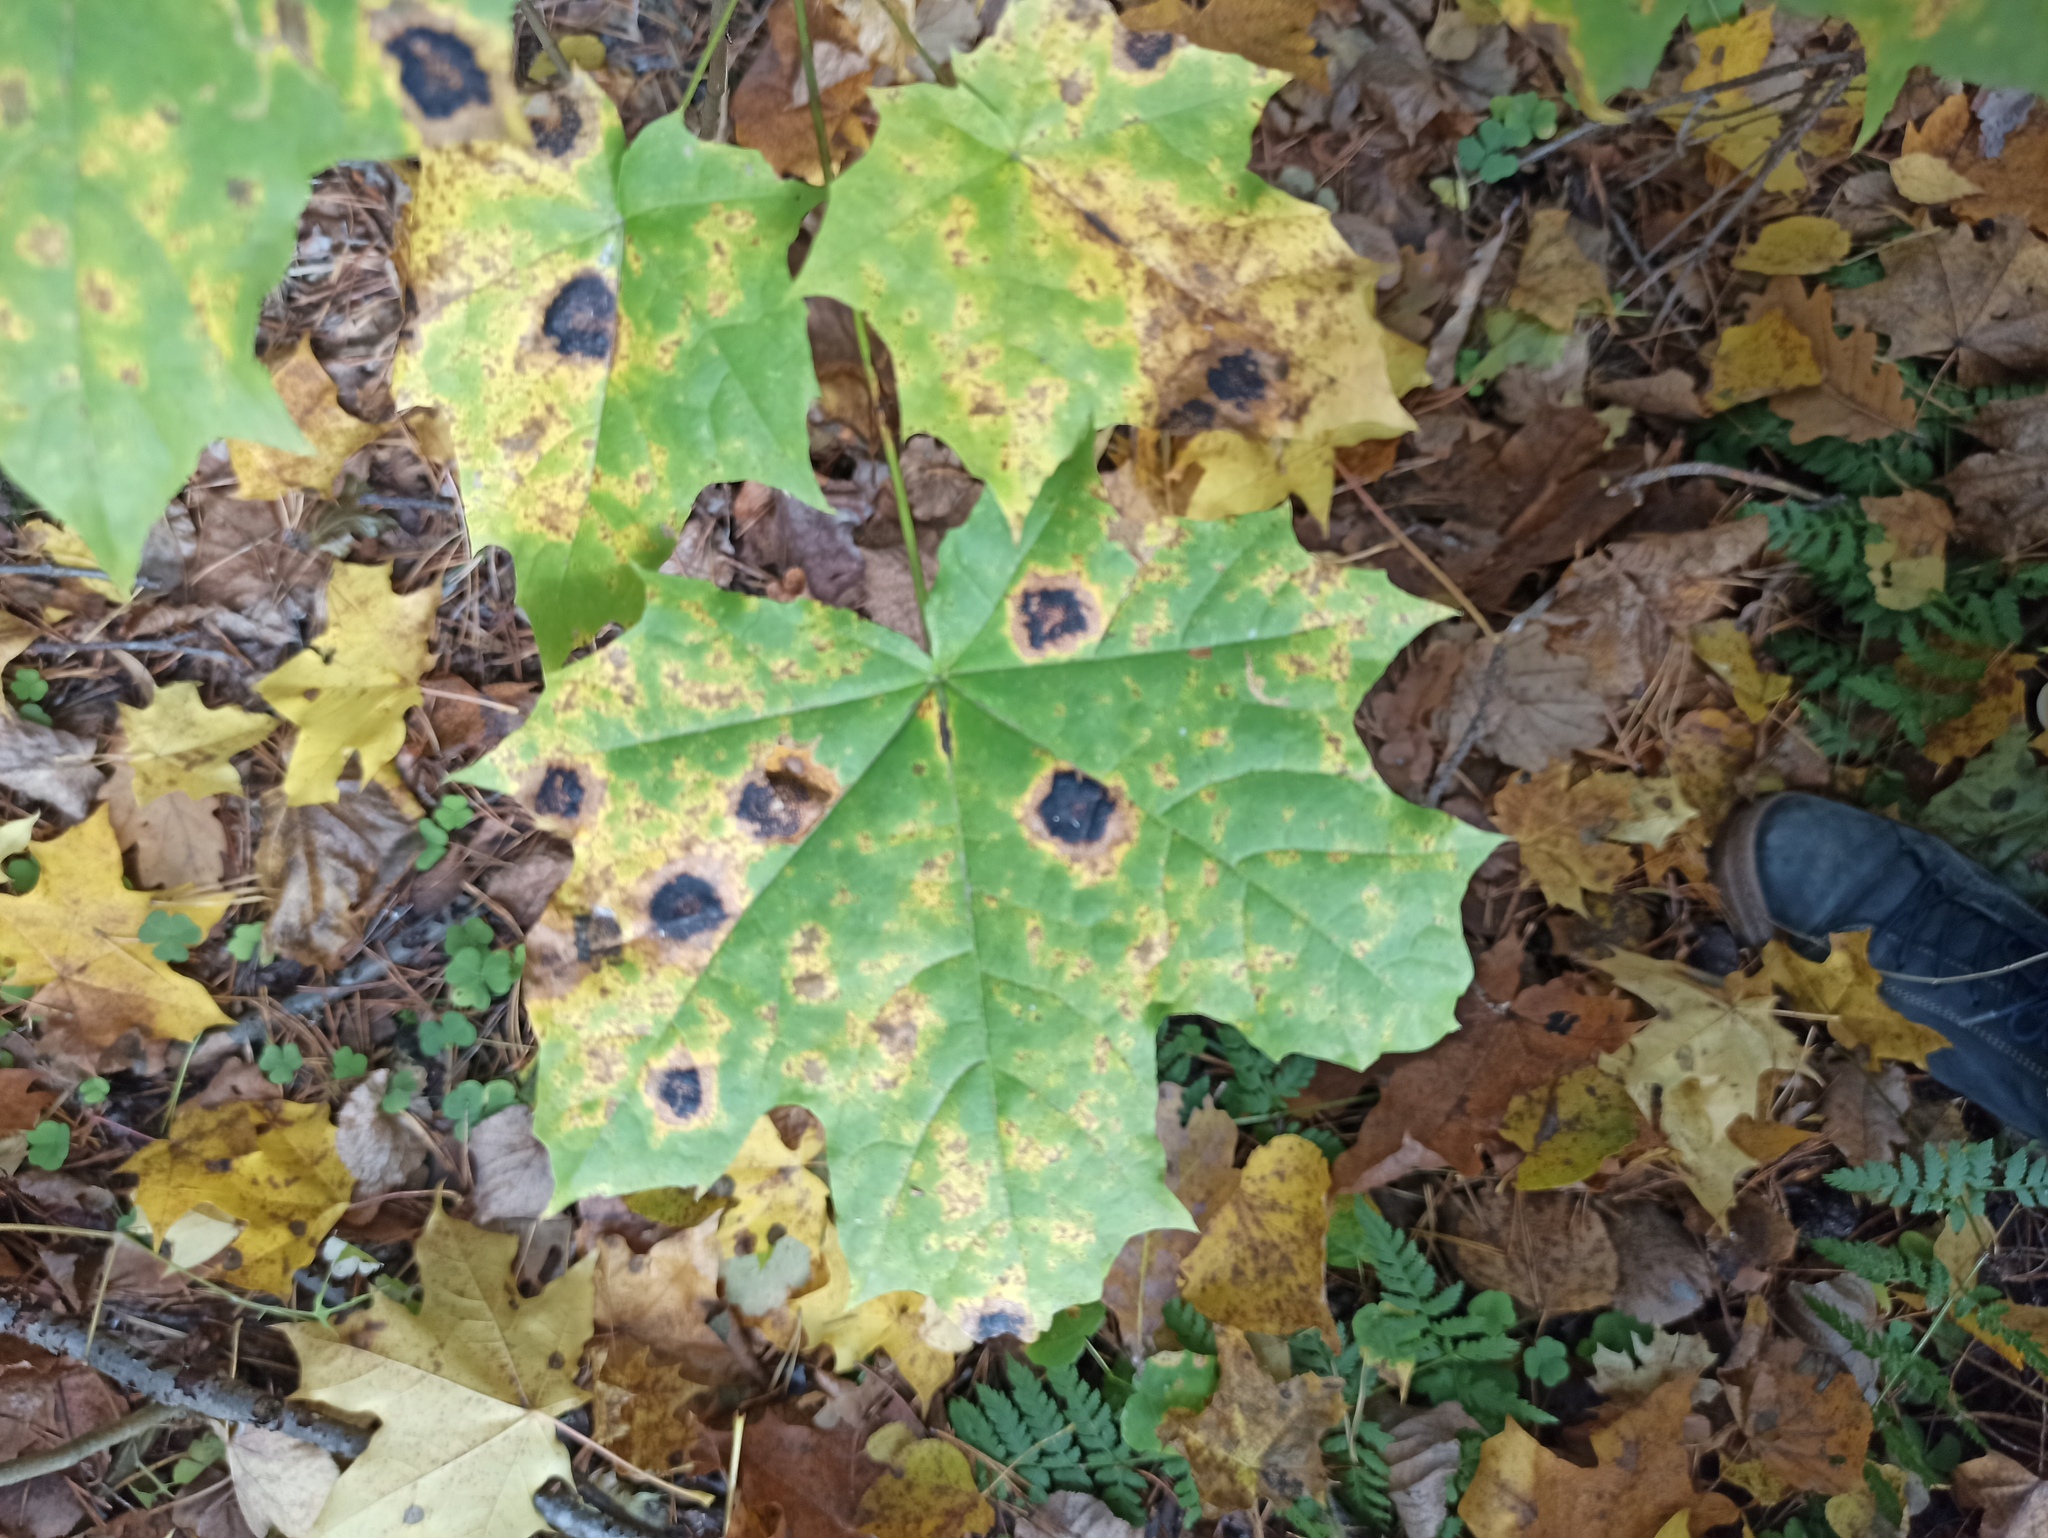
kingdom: Fungi
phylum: Ascomycota
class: Leotiomycetes
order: Rhytismatales
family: Rhytismataceae
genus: Rhytisma
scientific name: Rhytisma acerinum
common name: European tar spot
